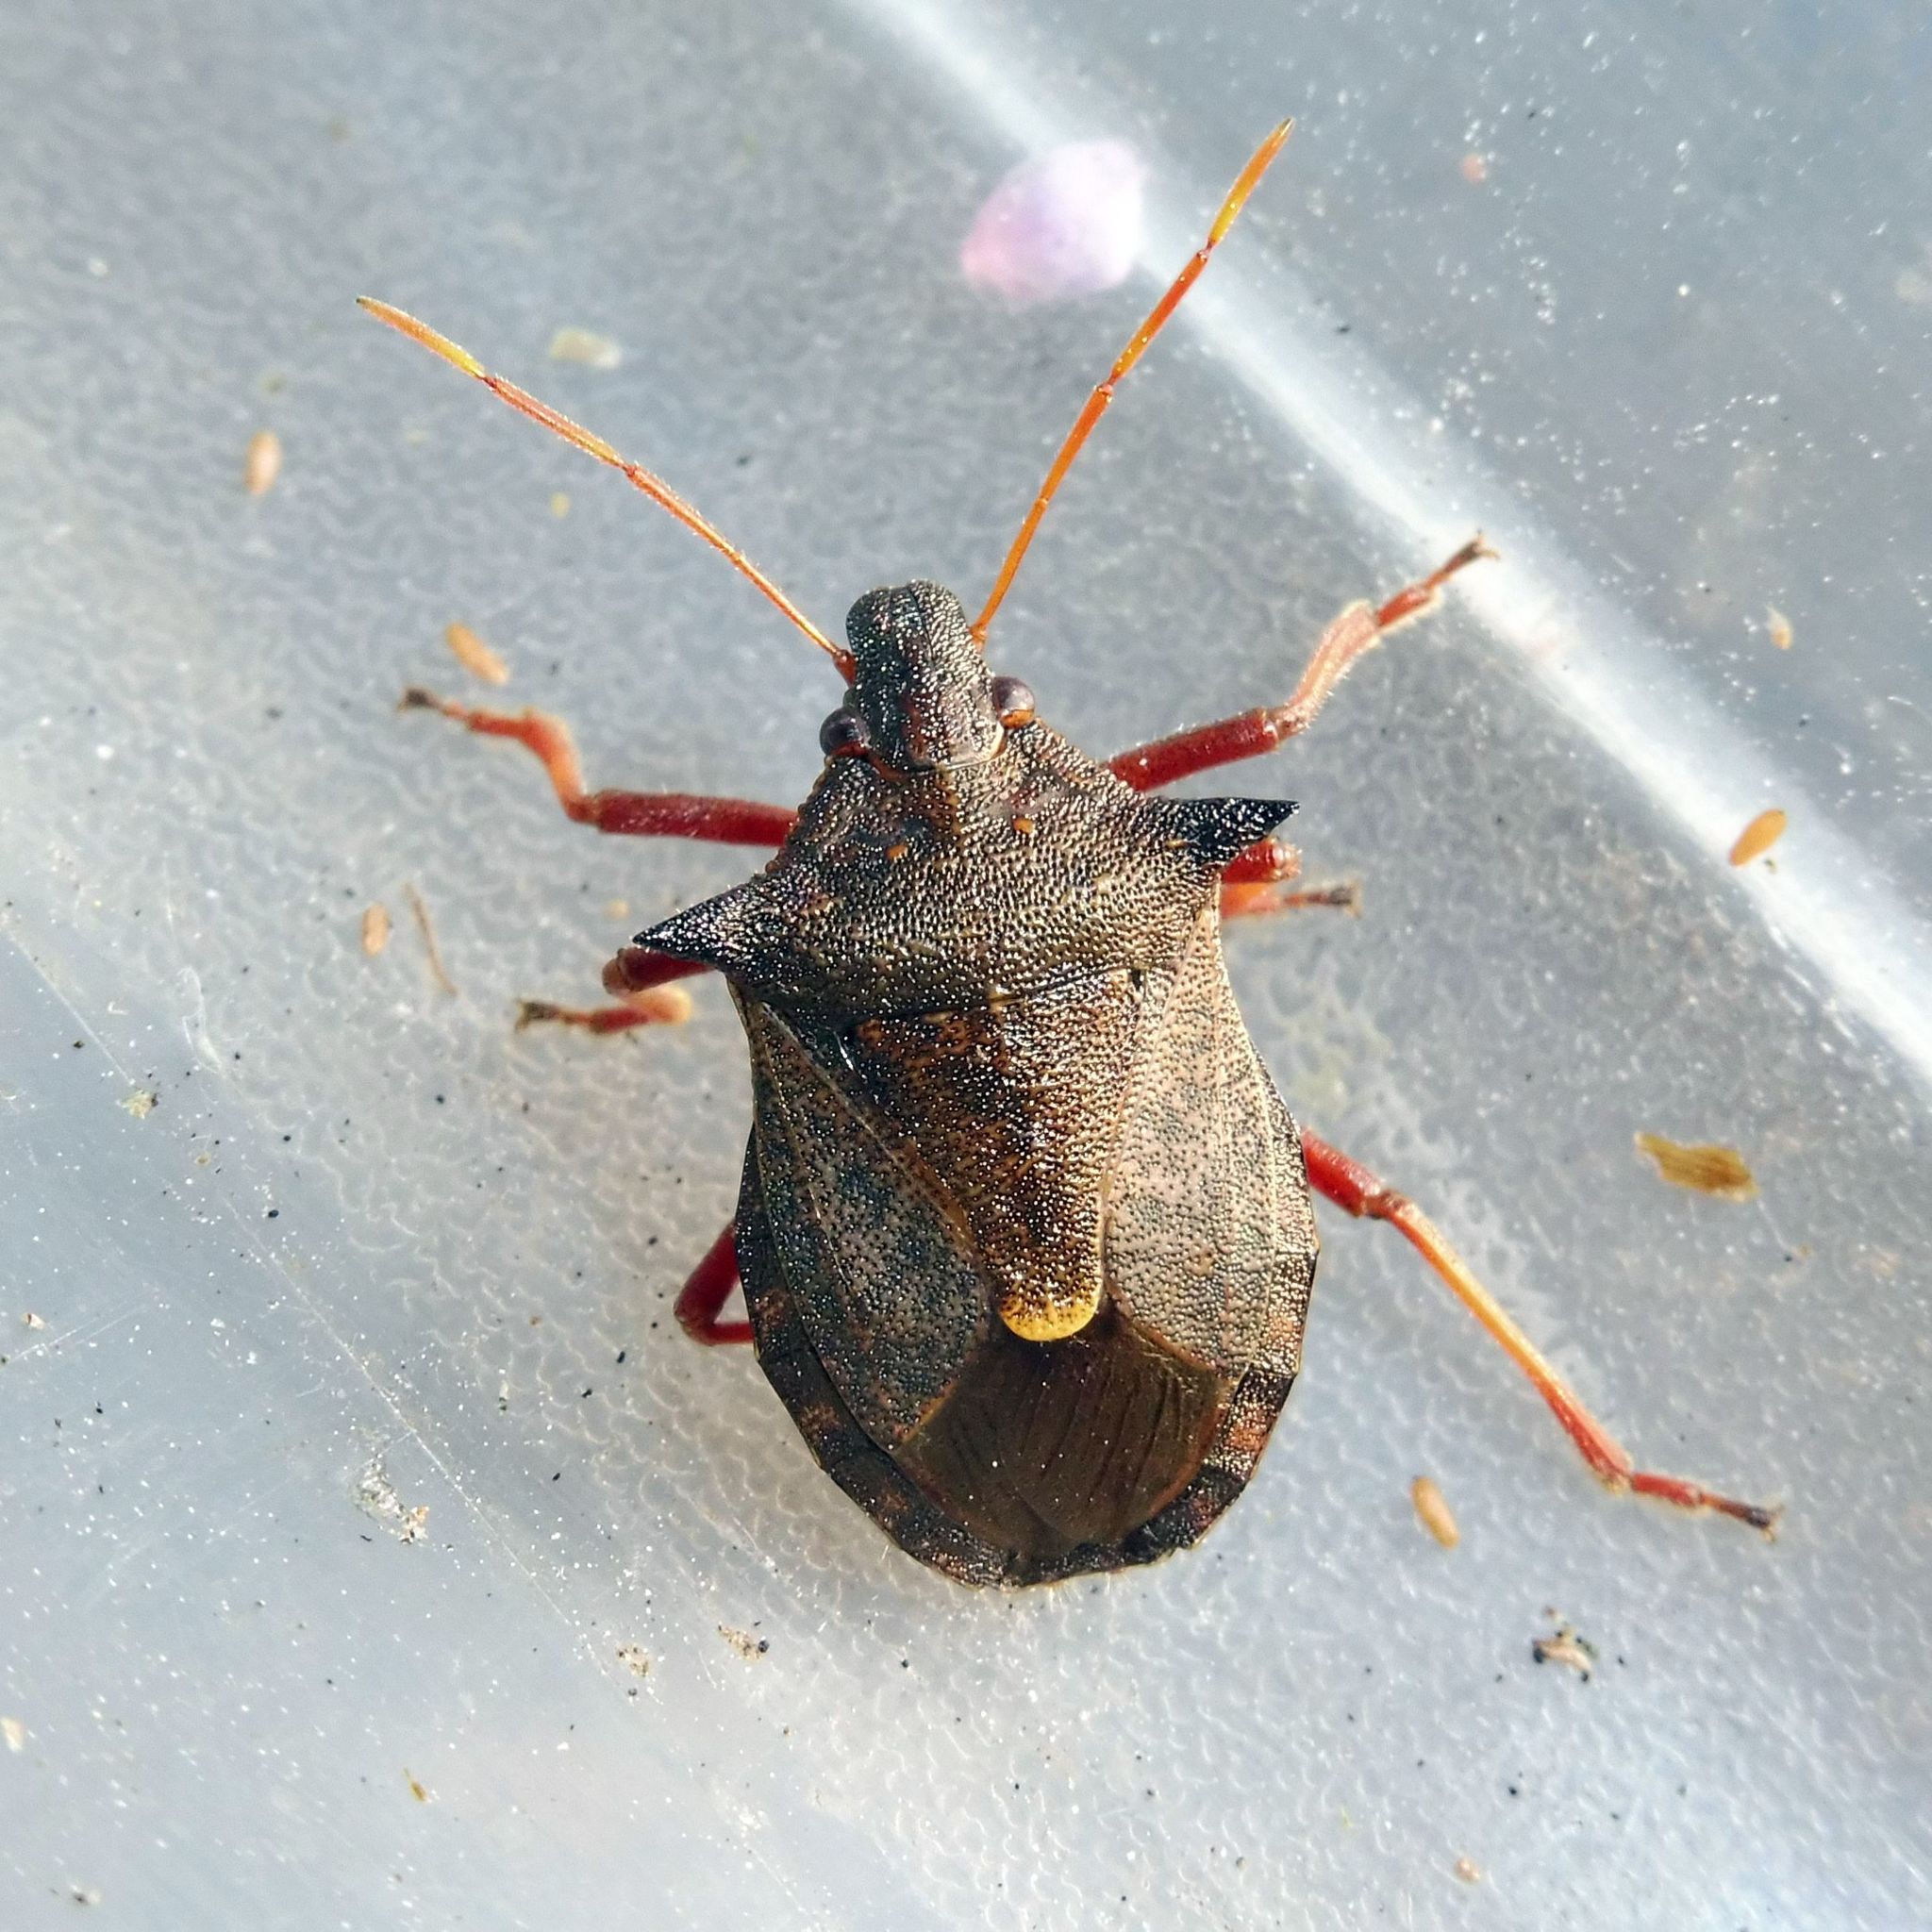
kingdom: Animalia
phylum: Arthropoda
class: Insecta
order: Hemiptera
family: Pentatomidae
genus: Picromerus
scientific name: Picromerus bidens
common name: Spiked shieldbug
